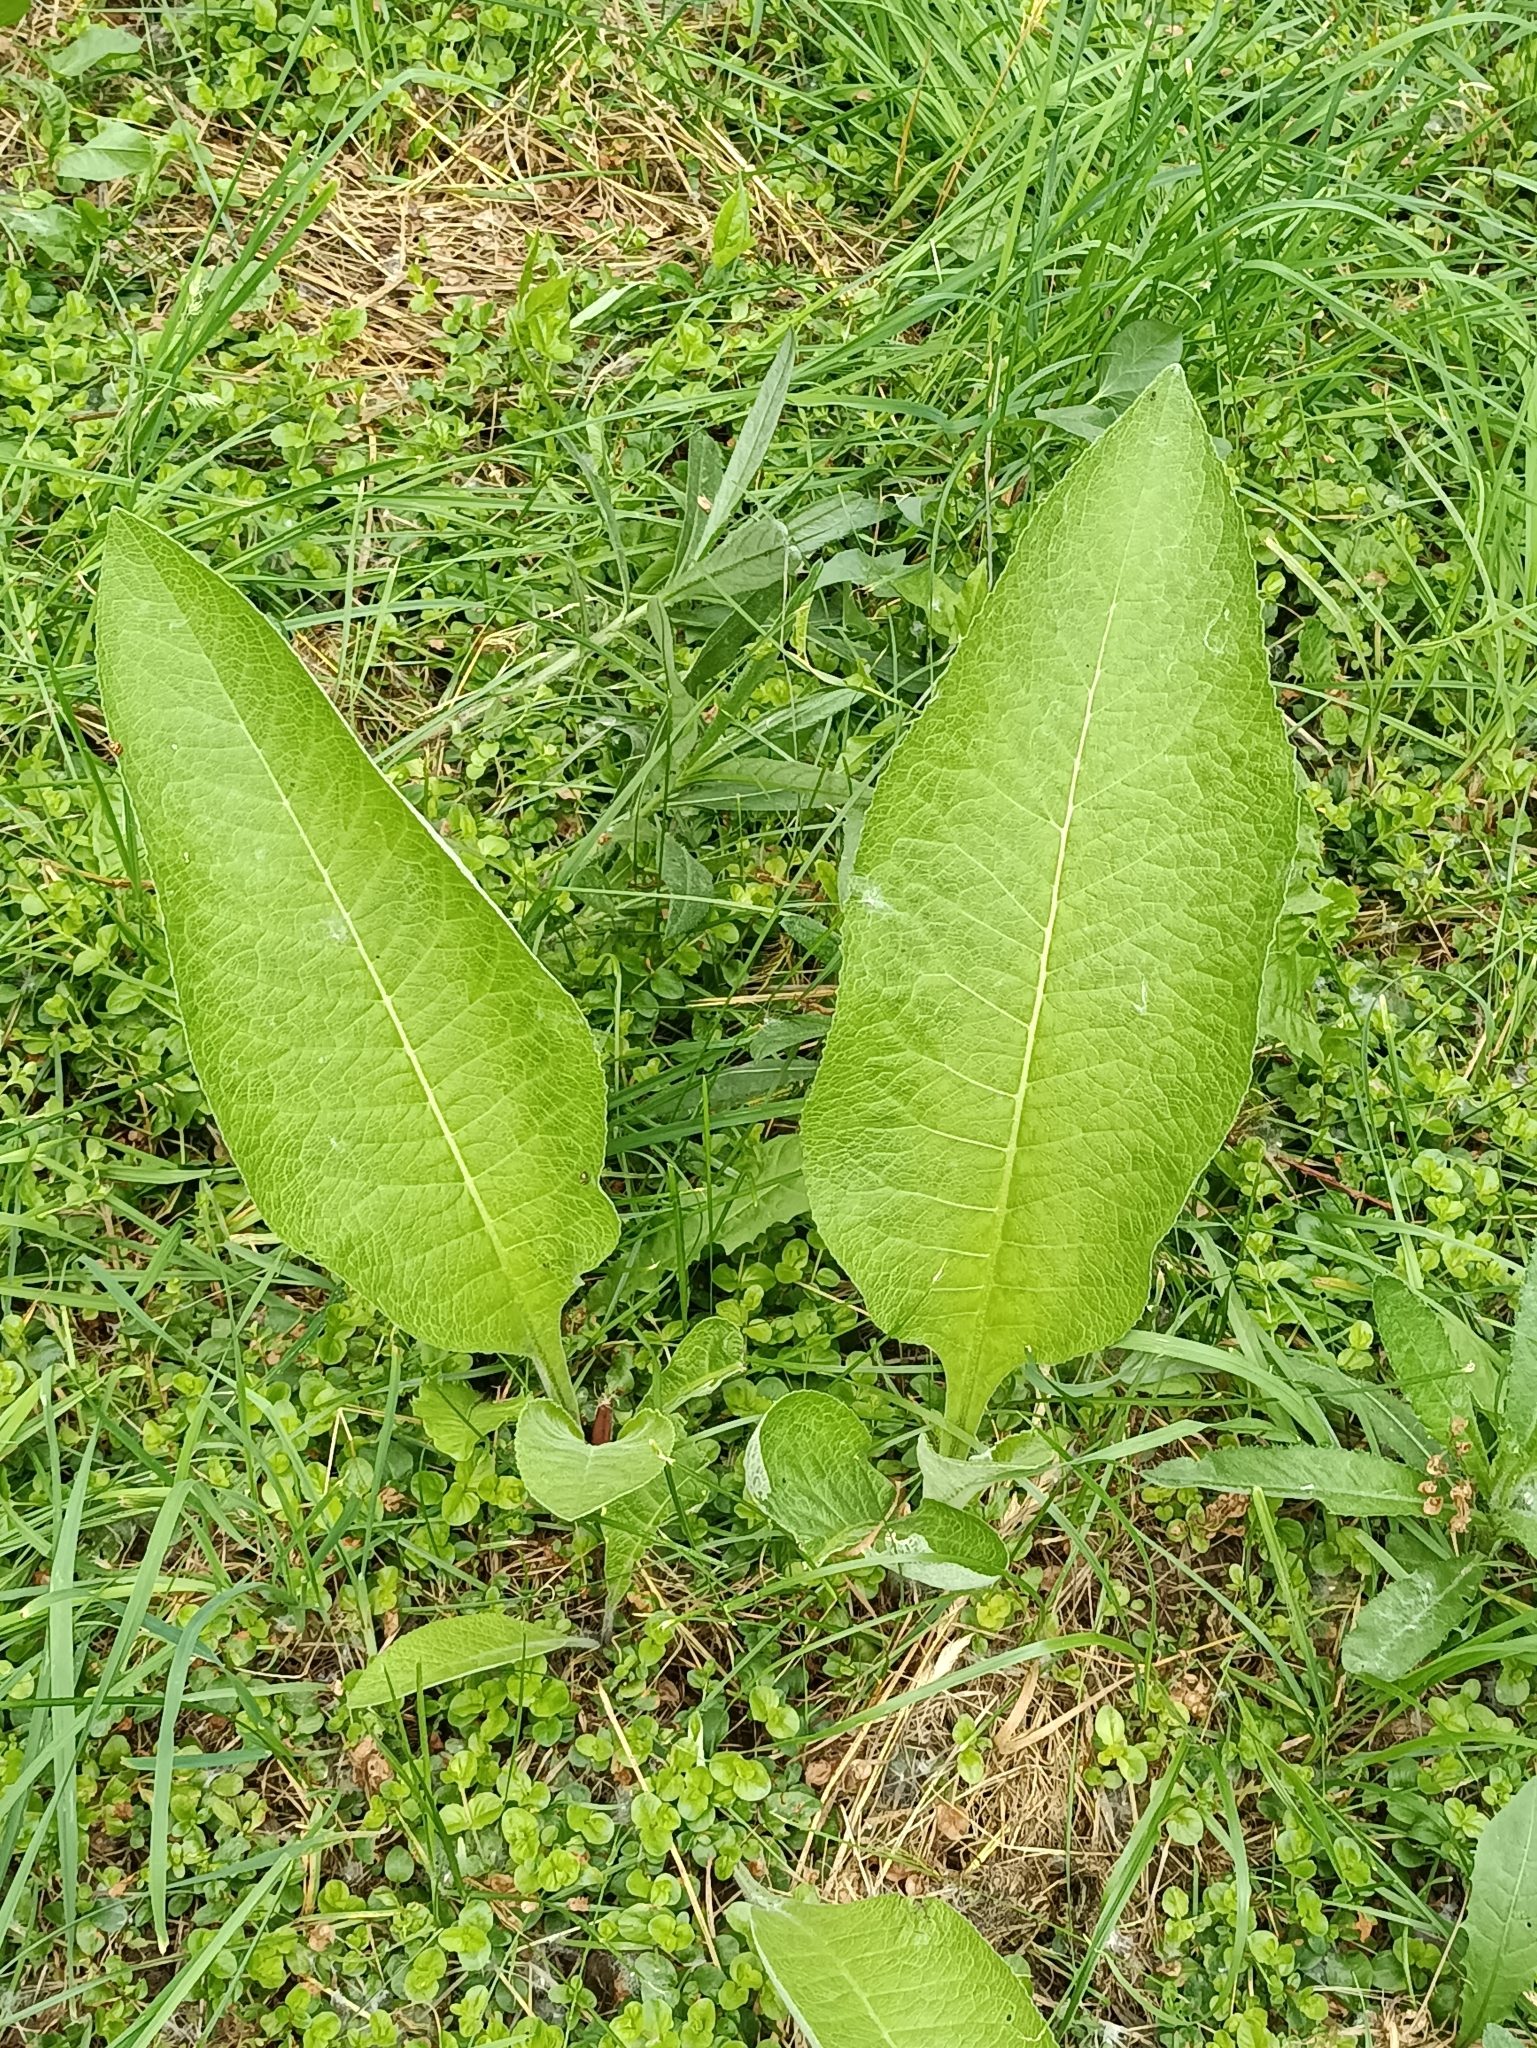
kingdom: Plantae
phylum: Tracheophyta
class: Magnoliopsida
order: Asterales
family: Asteraceae
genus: Inula
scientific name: Inula helenium
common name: Elecampane
